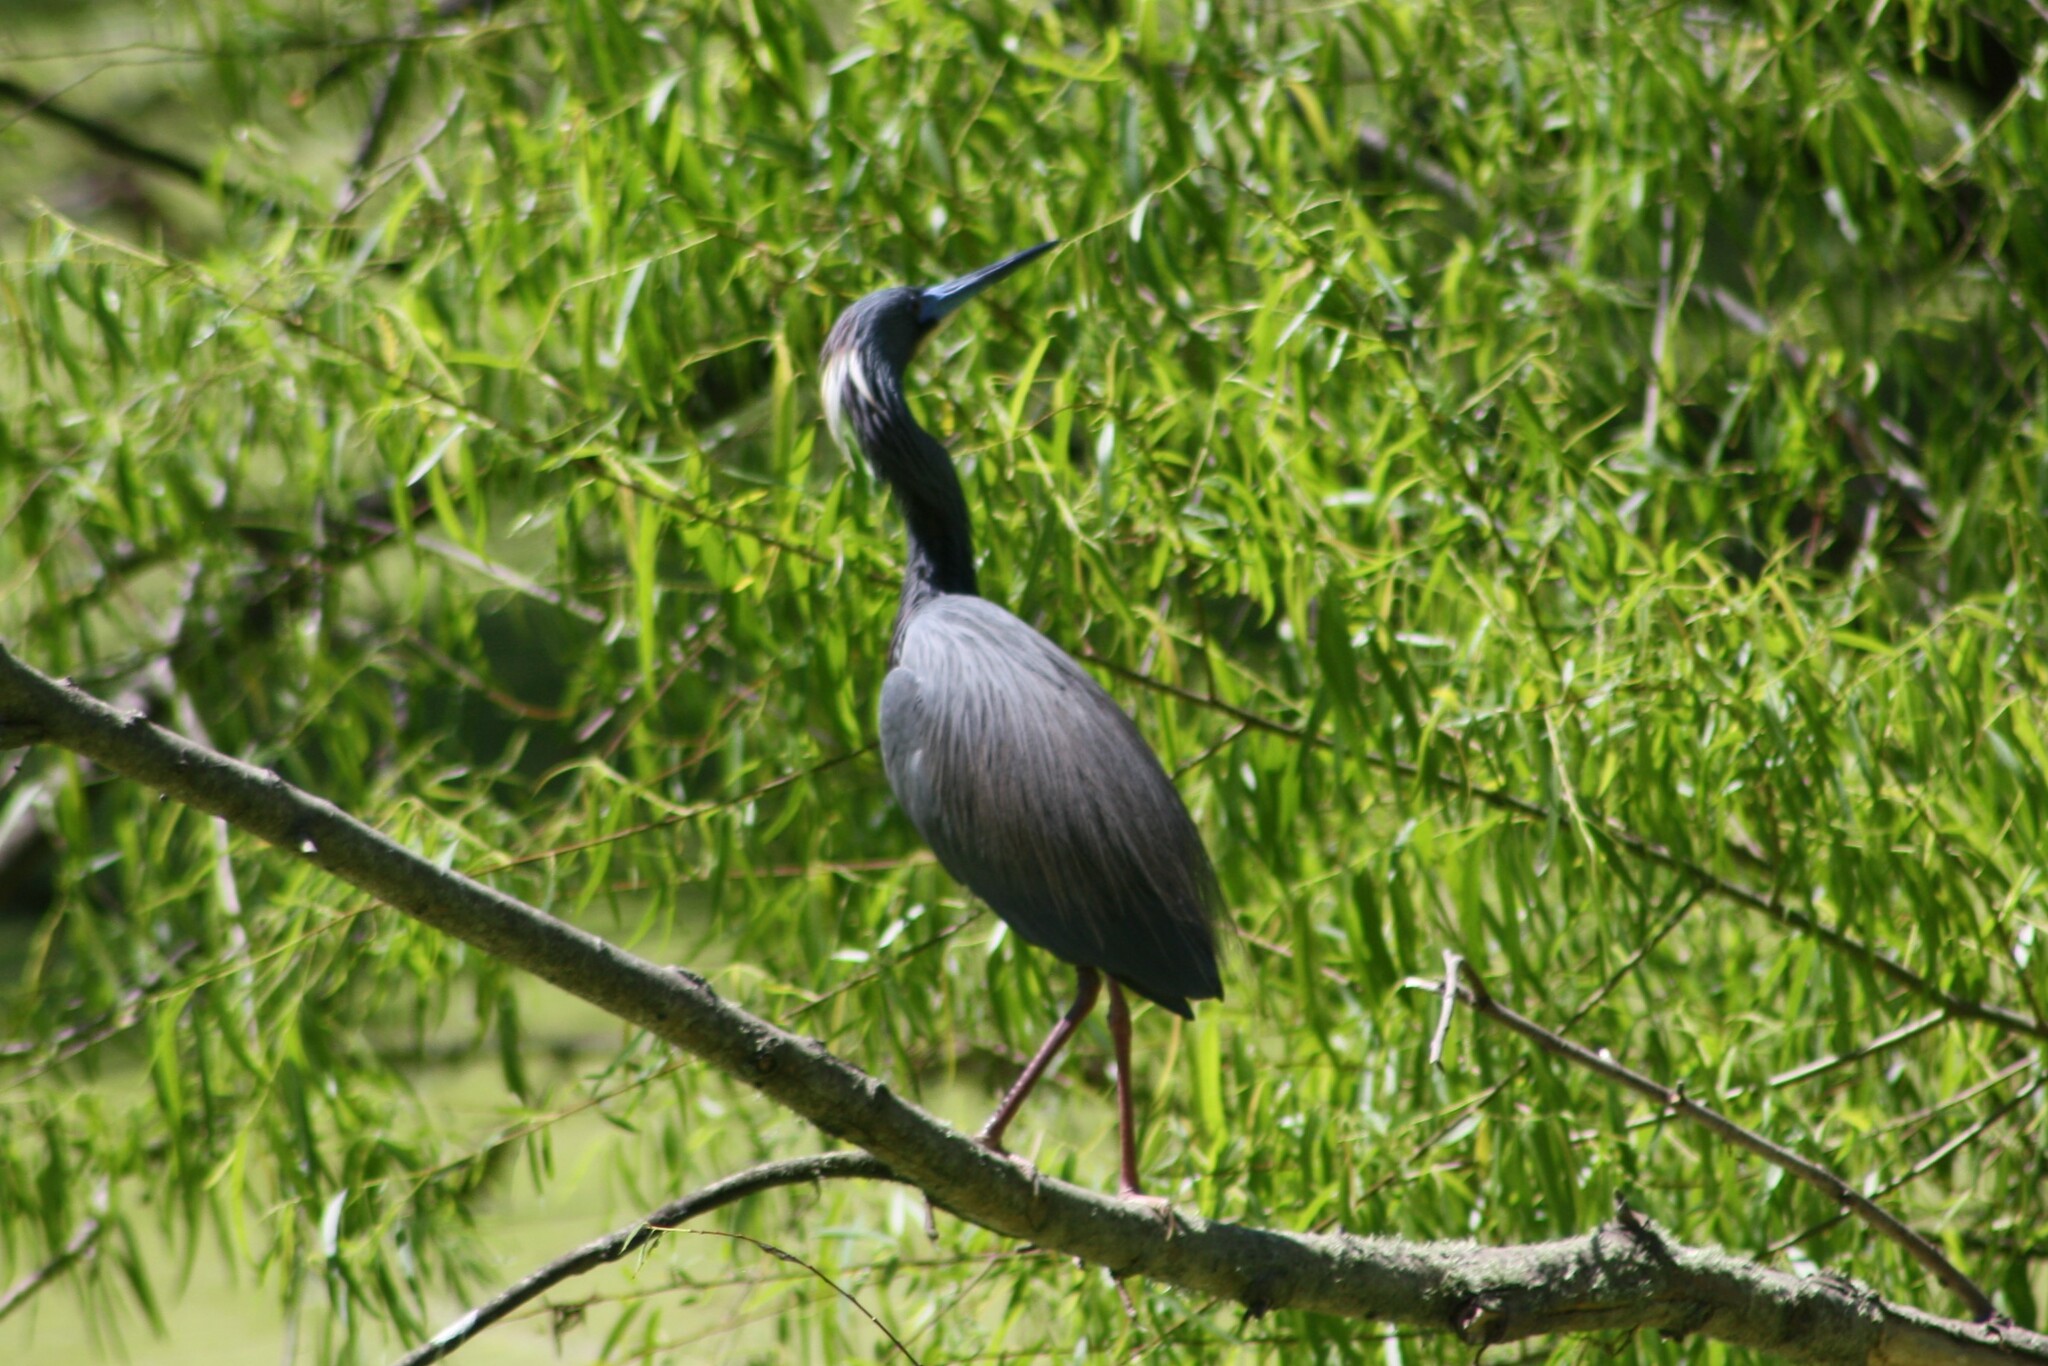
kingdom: Animalia
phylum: Chordata
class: Aves
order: Pelecaniformes
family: Ardeidae
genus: Egretta
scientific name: Egretta tricolor
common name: Tricolored heron
